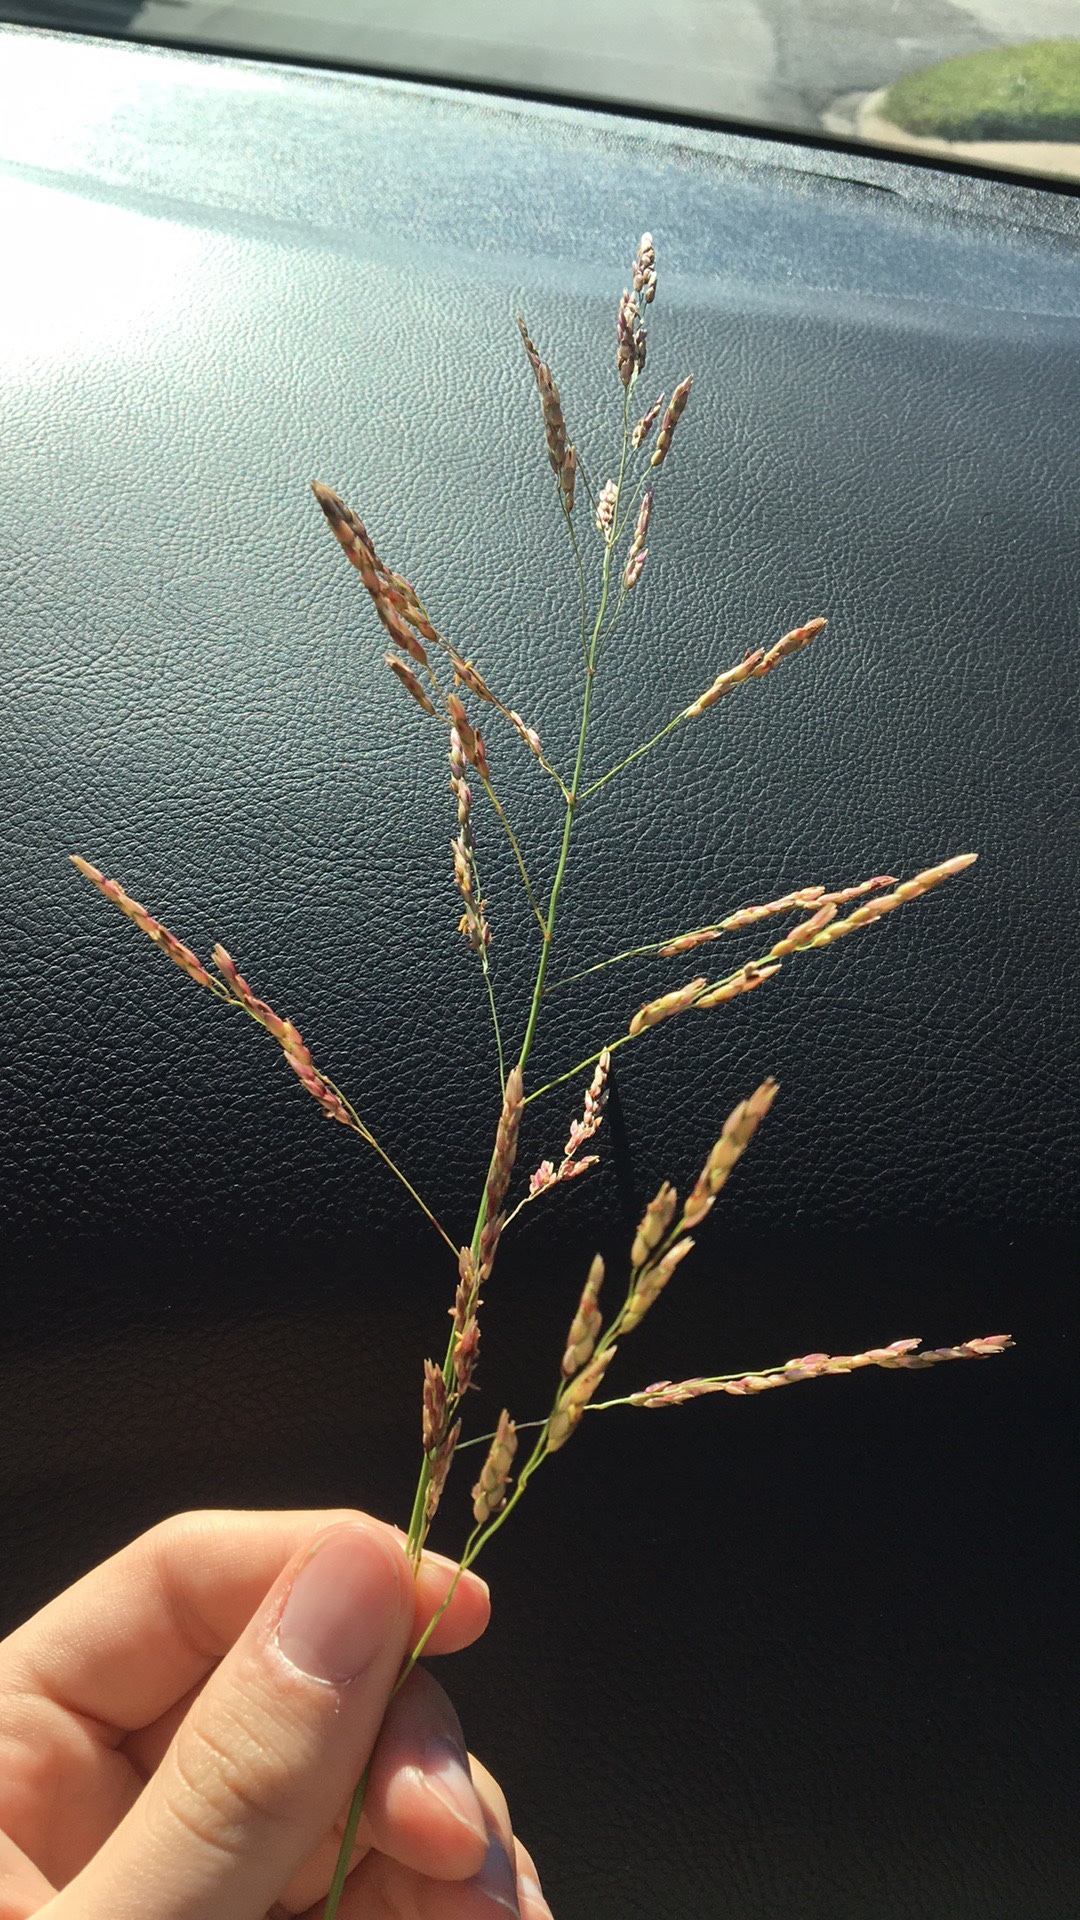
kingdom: Plantae
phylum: Tracheophyta
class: Liliopsida
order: Poales
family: Poaceae
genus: Sorghum
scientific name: Sorghum halepense
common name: Johnson-grass
